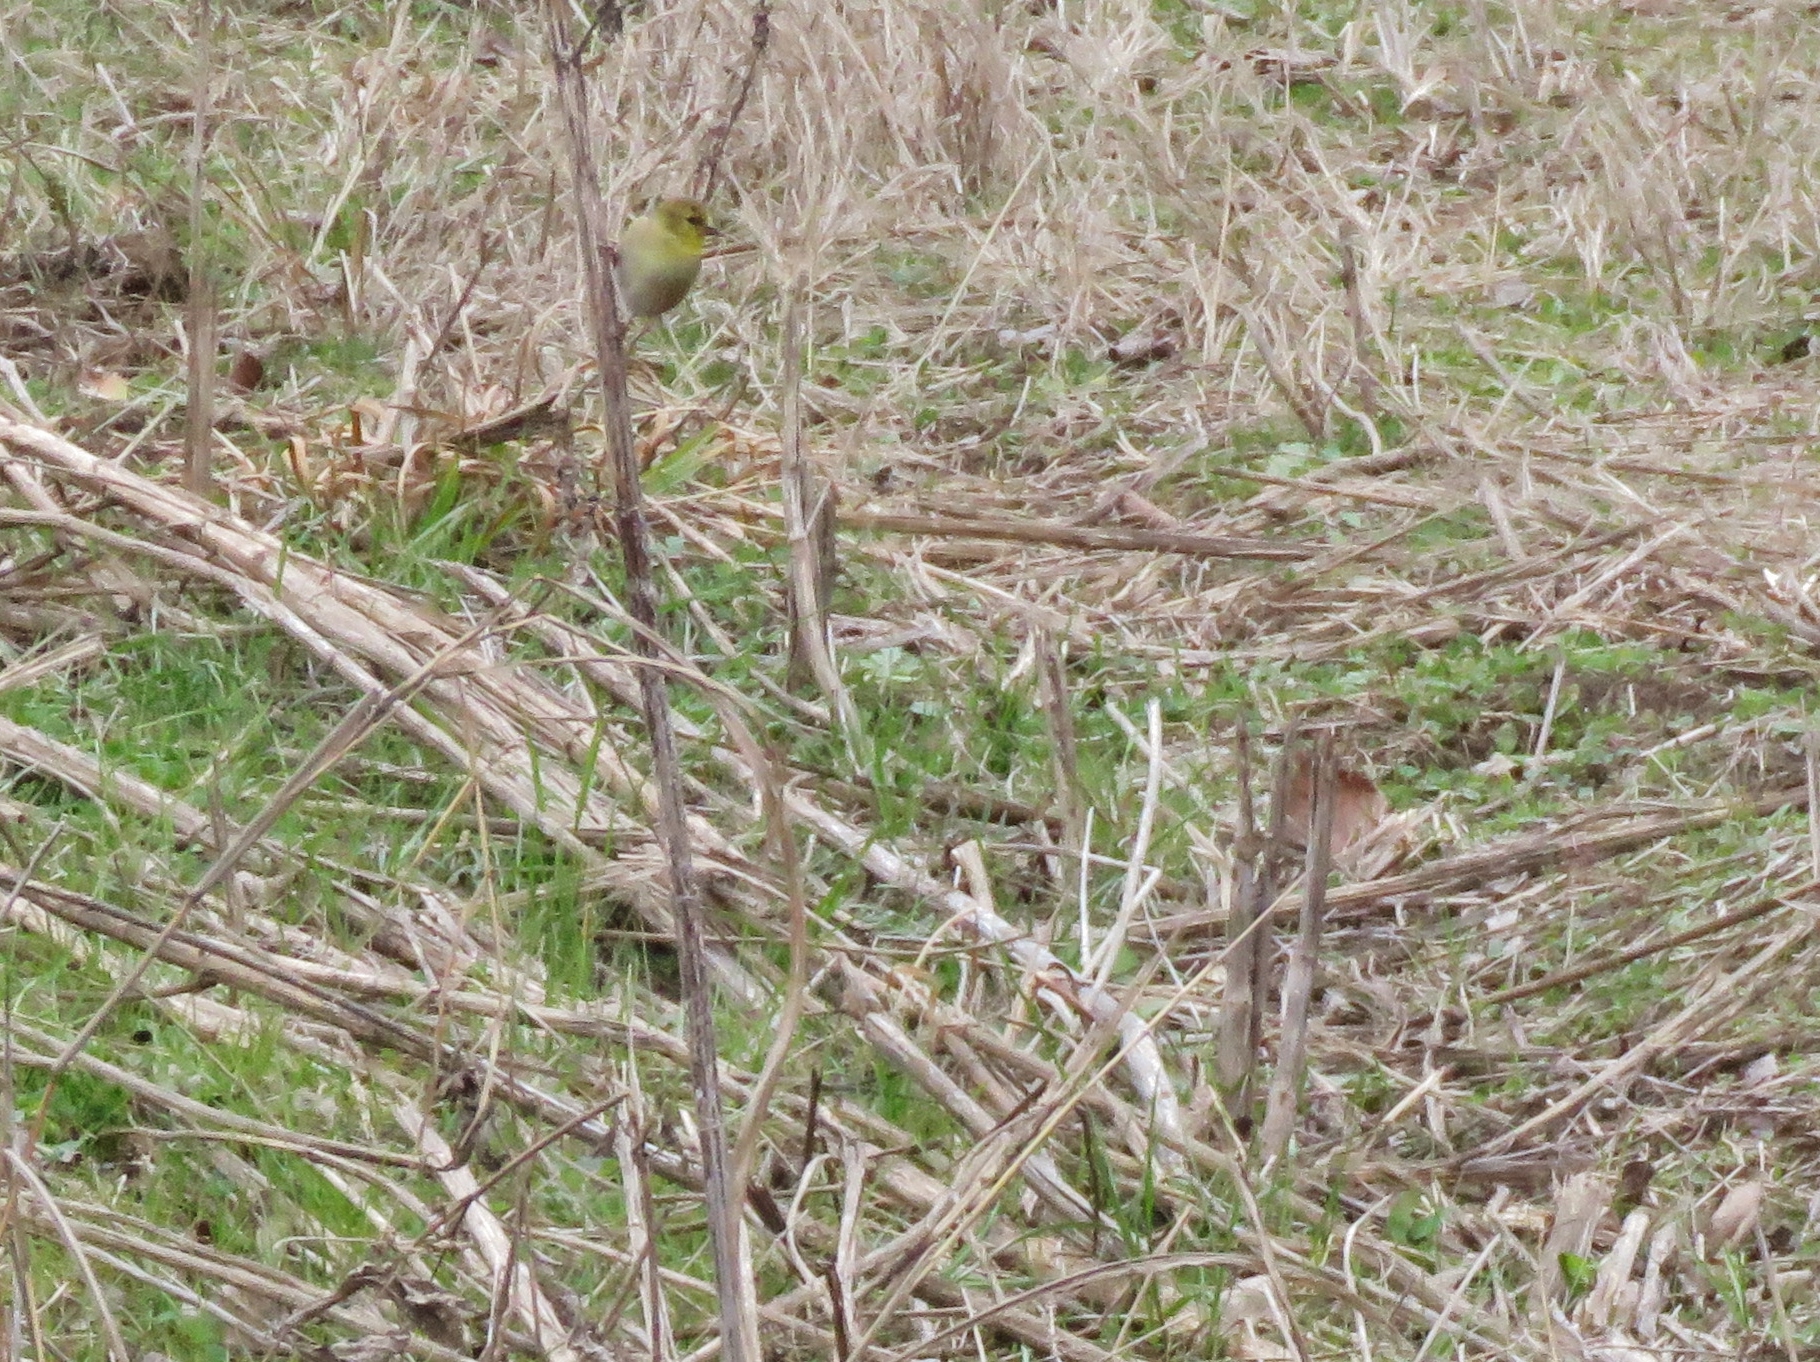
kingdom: Animalia
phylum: Chordata
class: Aves
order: Passeriformes
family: Fringillidae
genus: Spinus
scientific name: Spinus tristis
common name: American goldfinch
